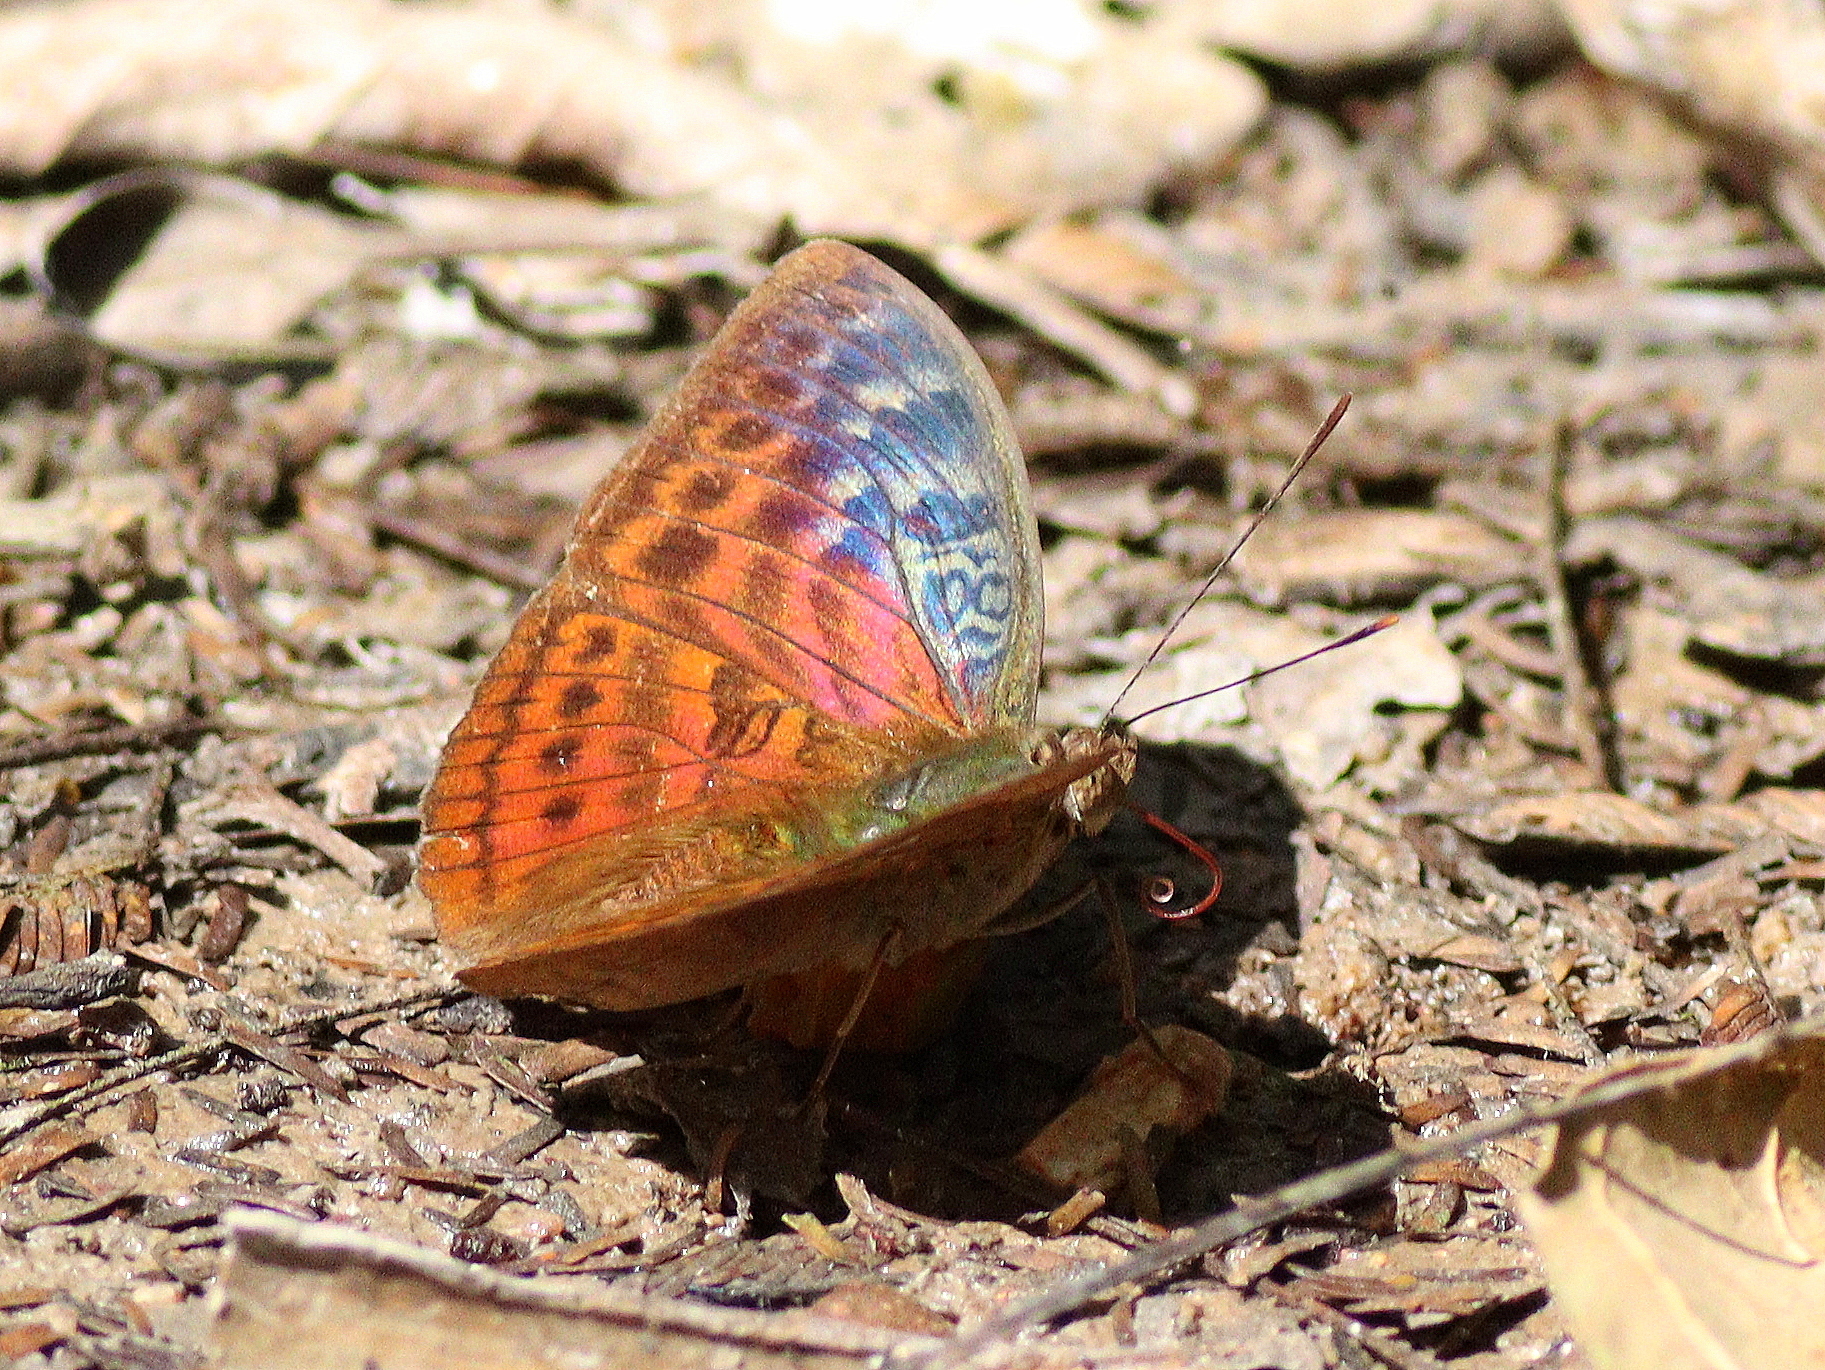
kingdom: Animalia
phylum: Arthropoda
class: Insecta
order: Lepidoptera
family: Nymphalidae
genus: Bebearia
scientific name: Bebearia tentyris
